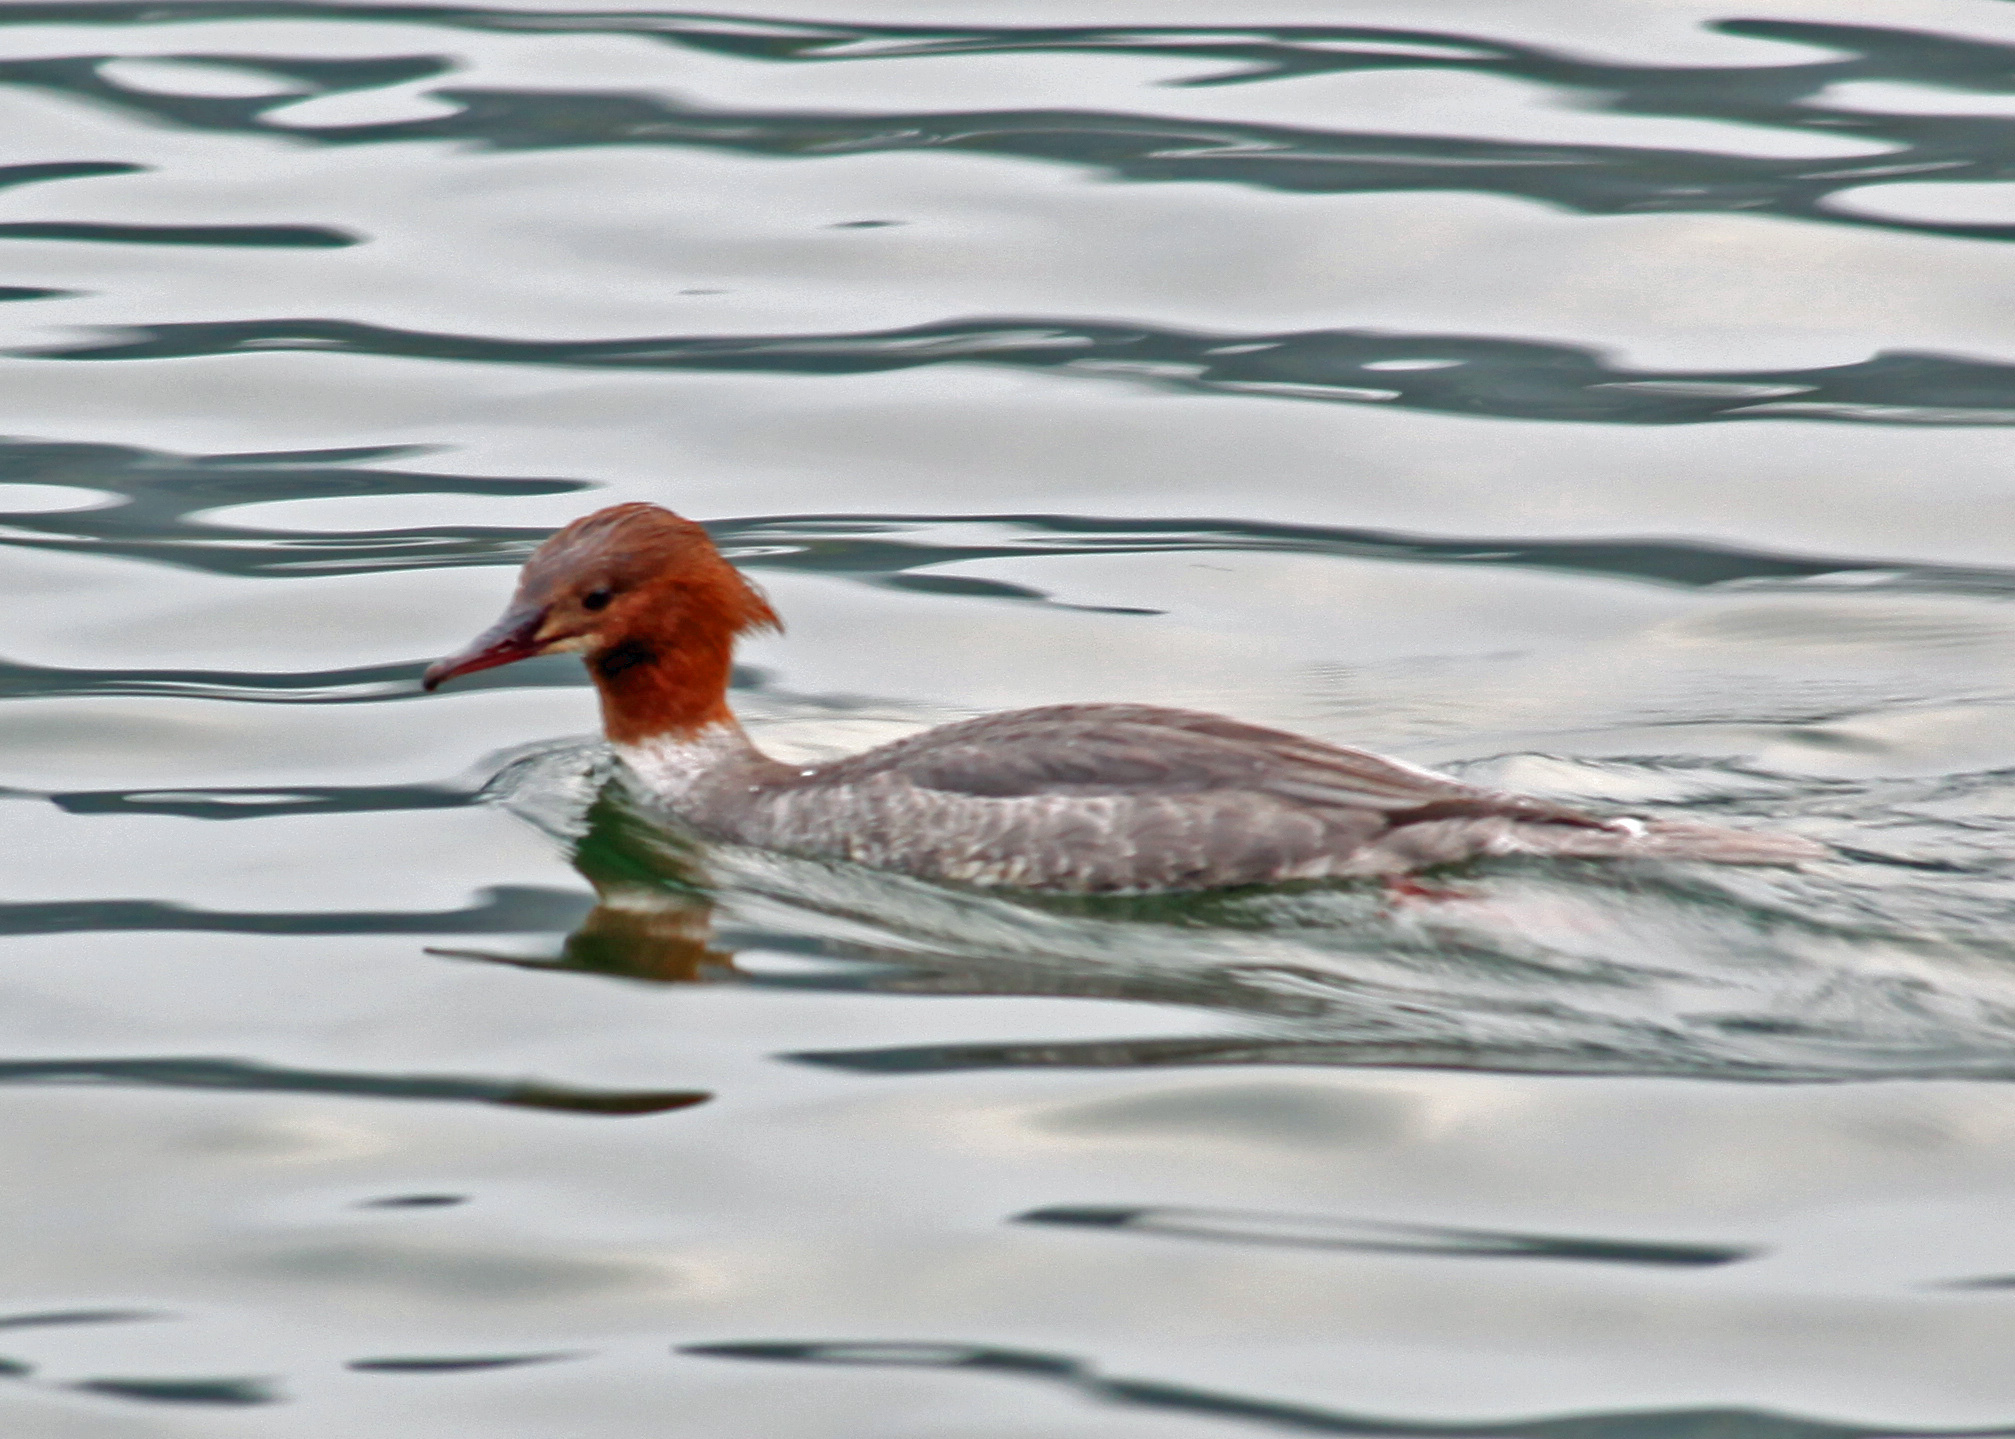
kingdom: Animalia
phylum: Chordata
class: Aves
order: Anseriformes
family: Anatidae
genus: Mergus
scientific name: Mergus merganser
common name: Common merganser
